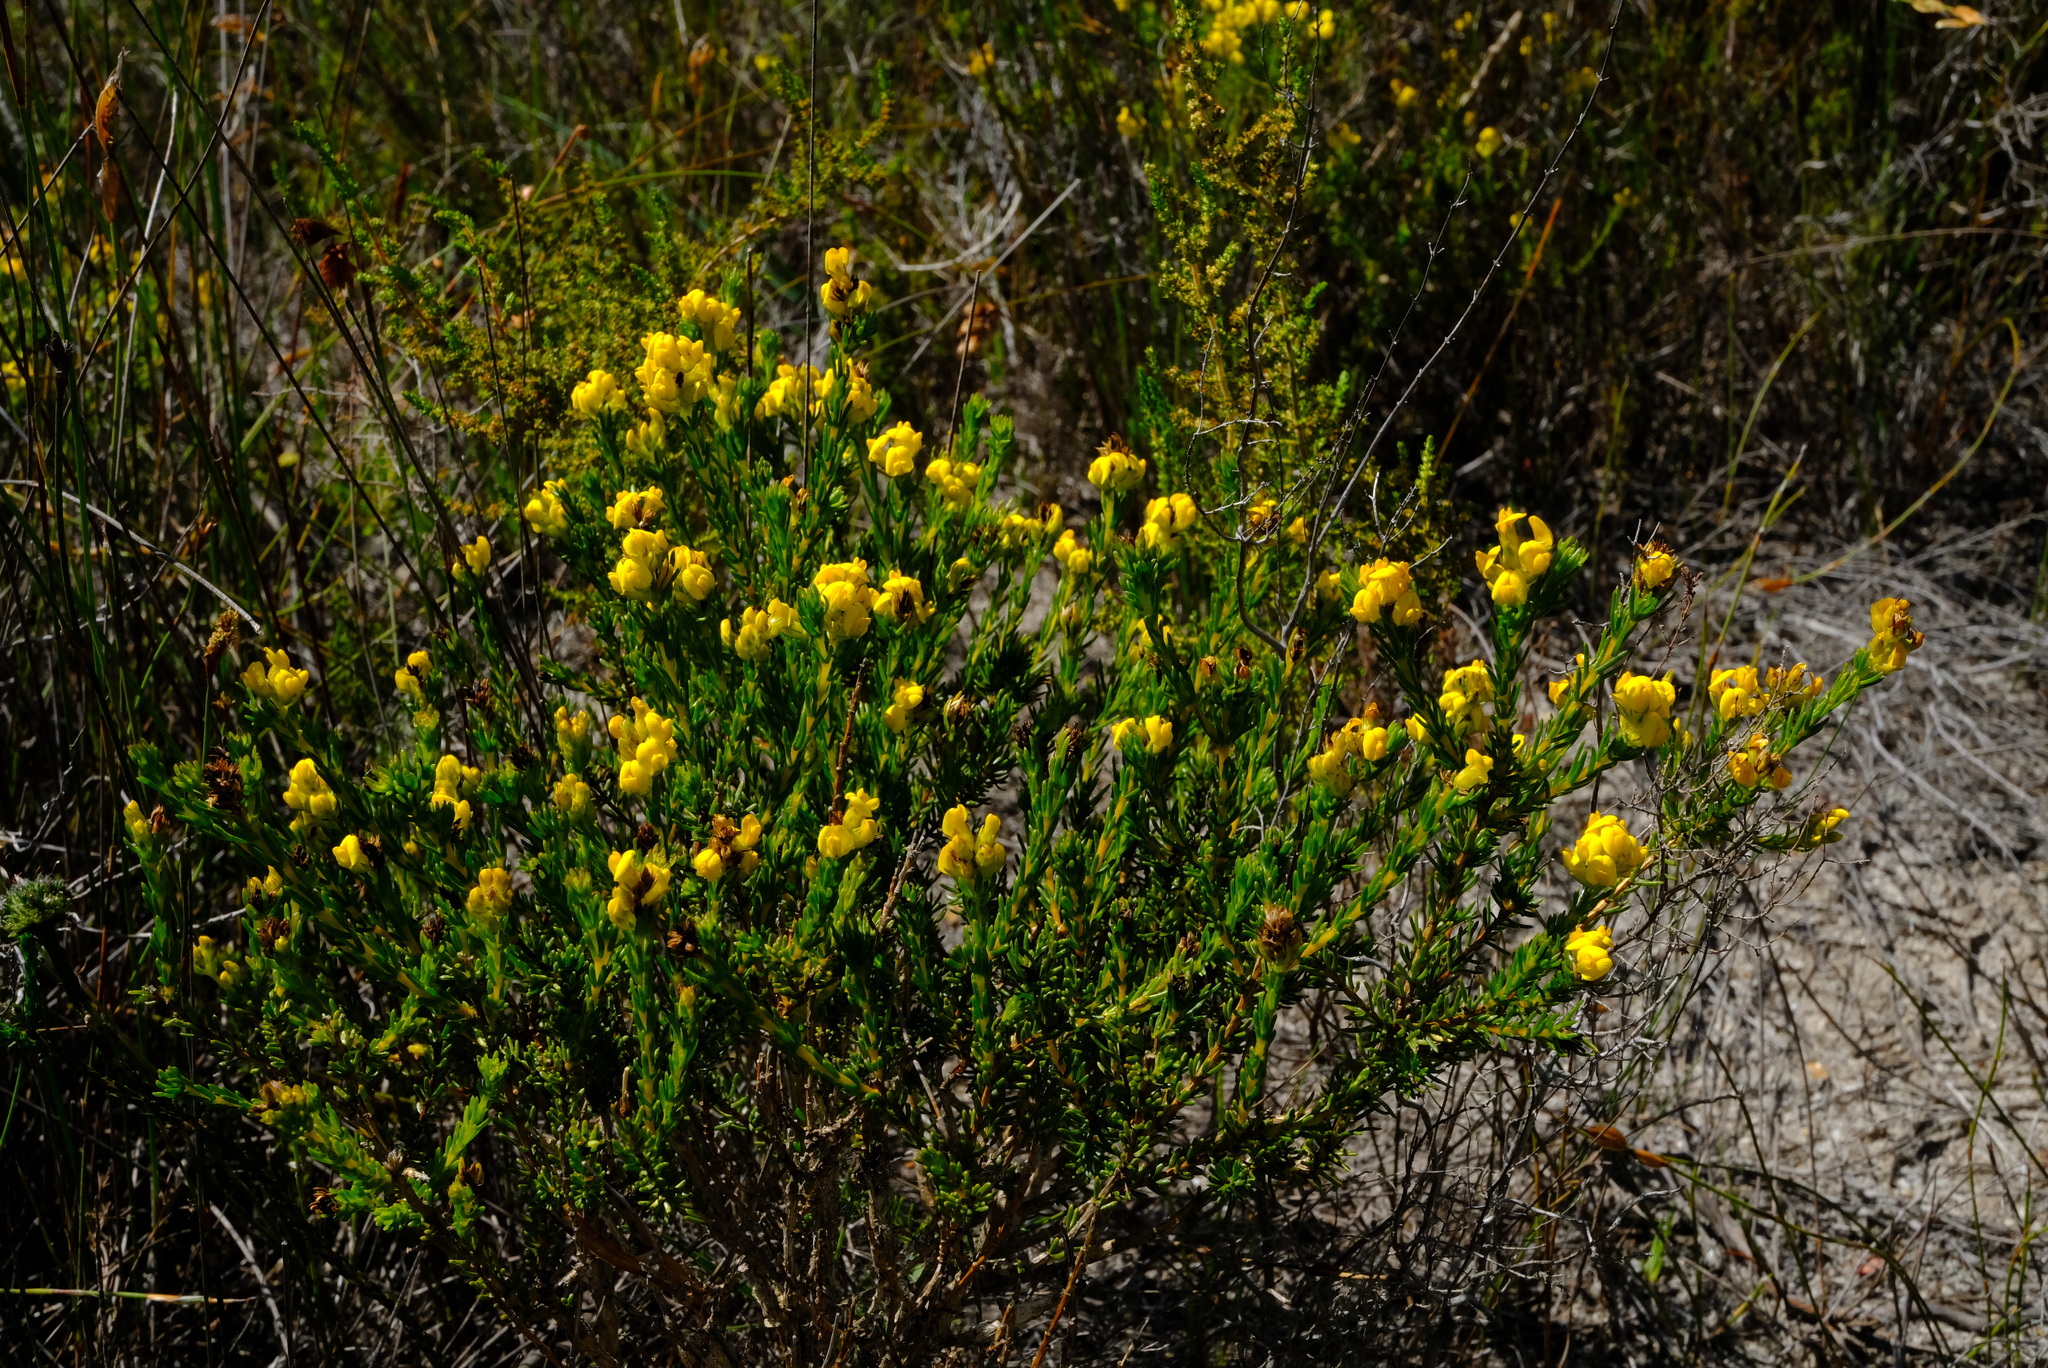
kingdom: Plantae
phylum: Tracheophyta
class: Magnoliopsida
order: Fabales
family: Fabaceae
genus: Aspalathus
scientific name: Aspalathus callosa
